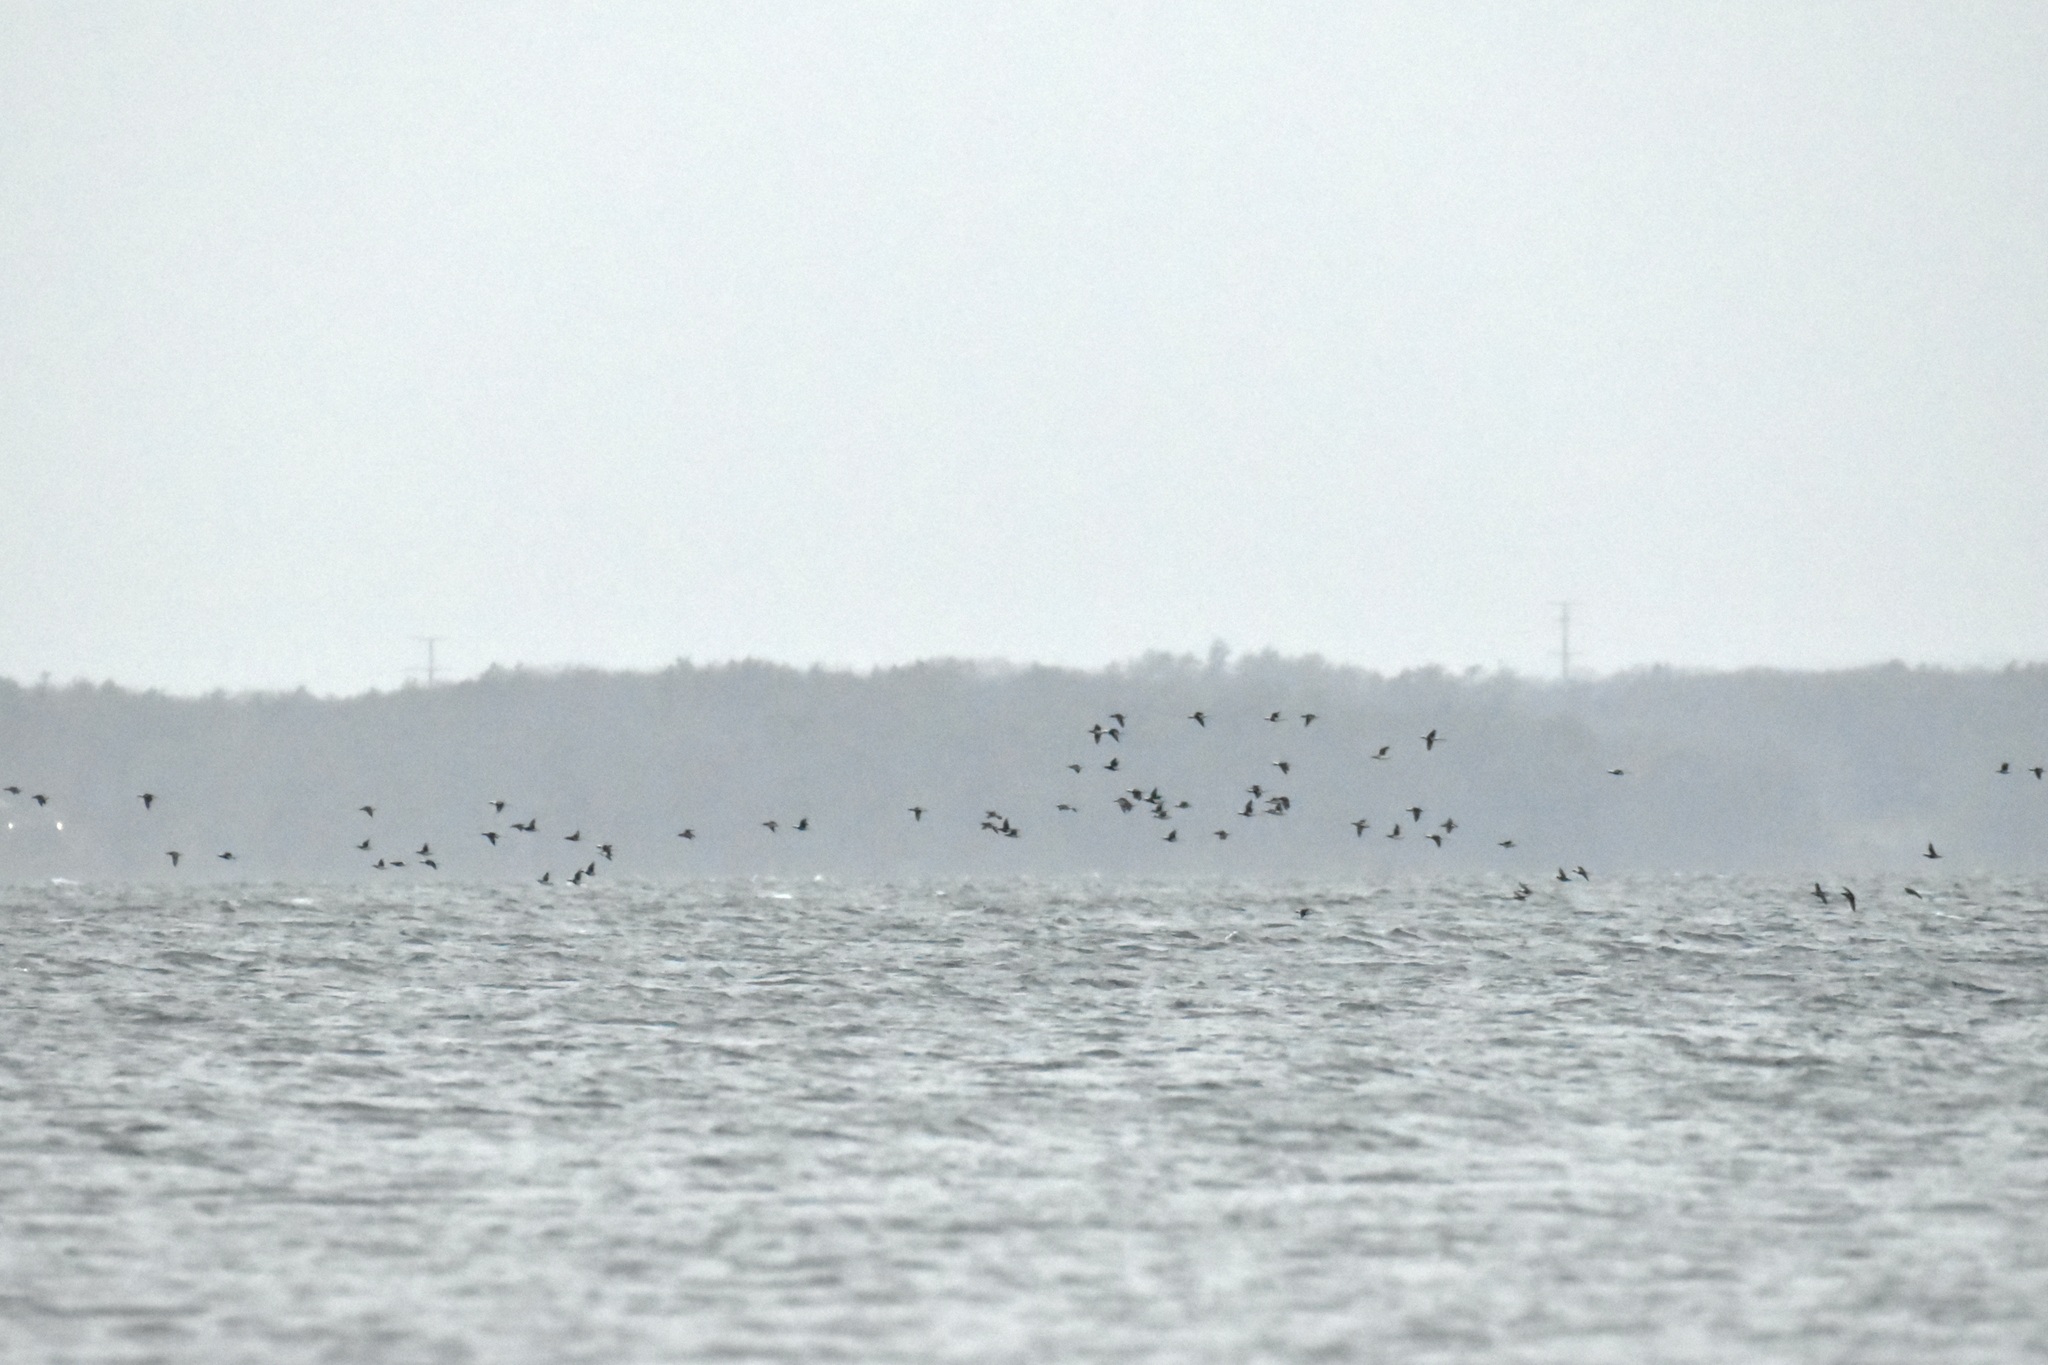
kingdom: Animalia
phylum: Chordata
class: Aves
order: Anseriformes
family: Anatidae
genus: Clangula
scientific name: Clangula hyemalis
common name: Long-tailed duck
